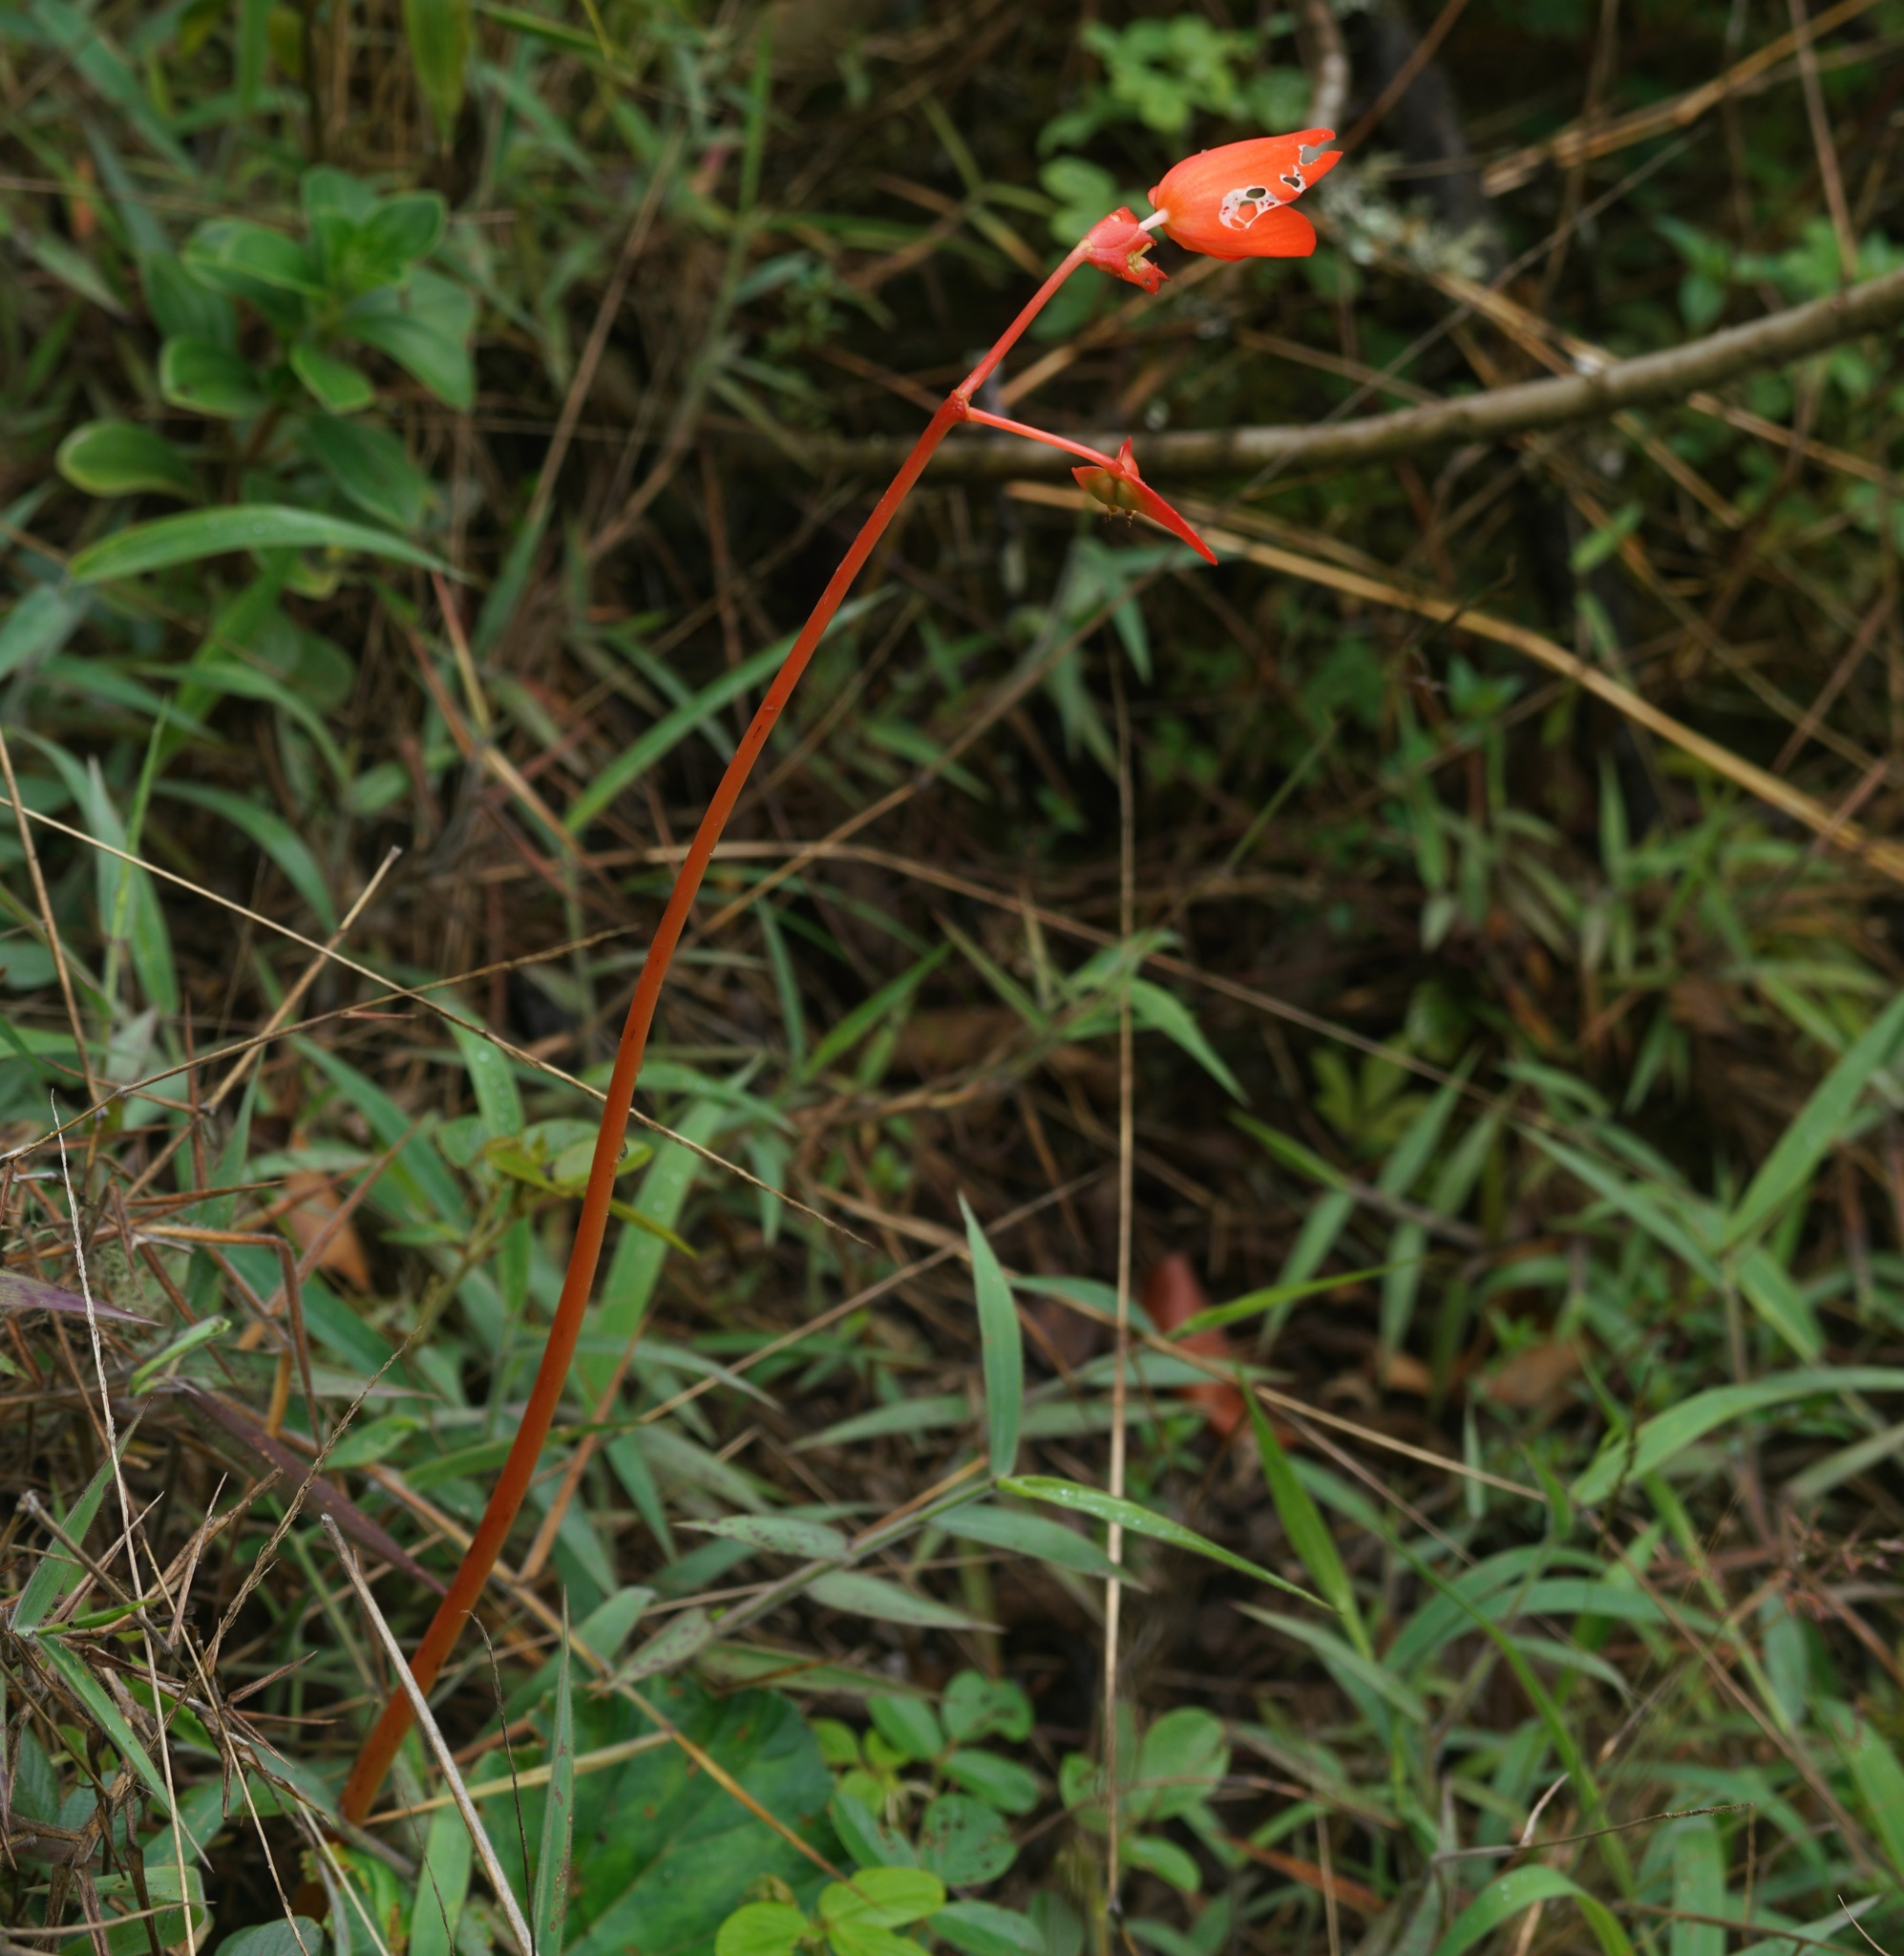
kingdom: Plantae
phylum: Tracheophyta
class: Magnoliopsida
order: Cucurbitales
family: Begoniaceae
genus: Begonia
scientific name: Begonia veitchii
